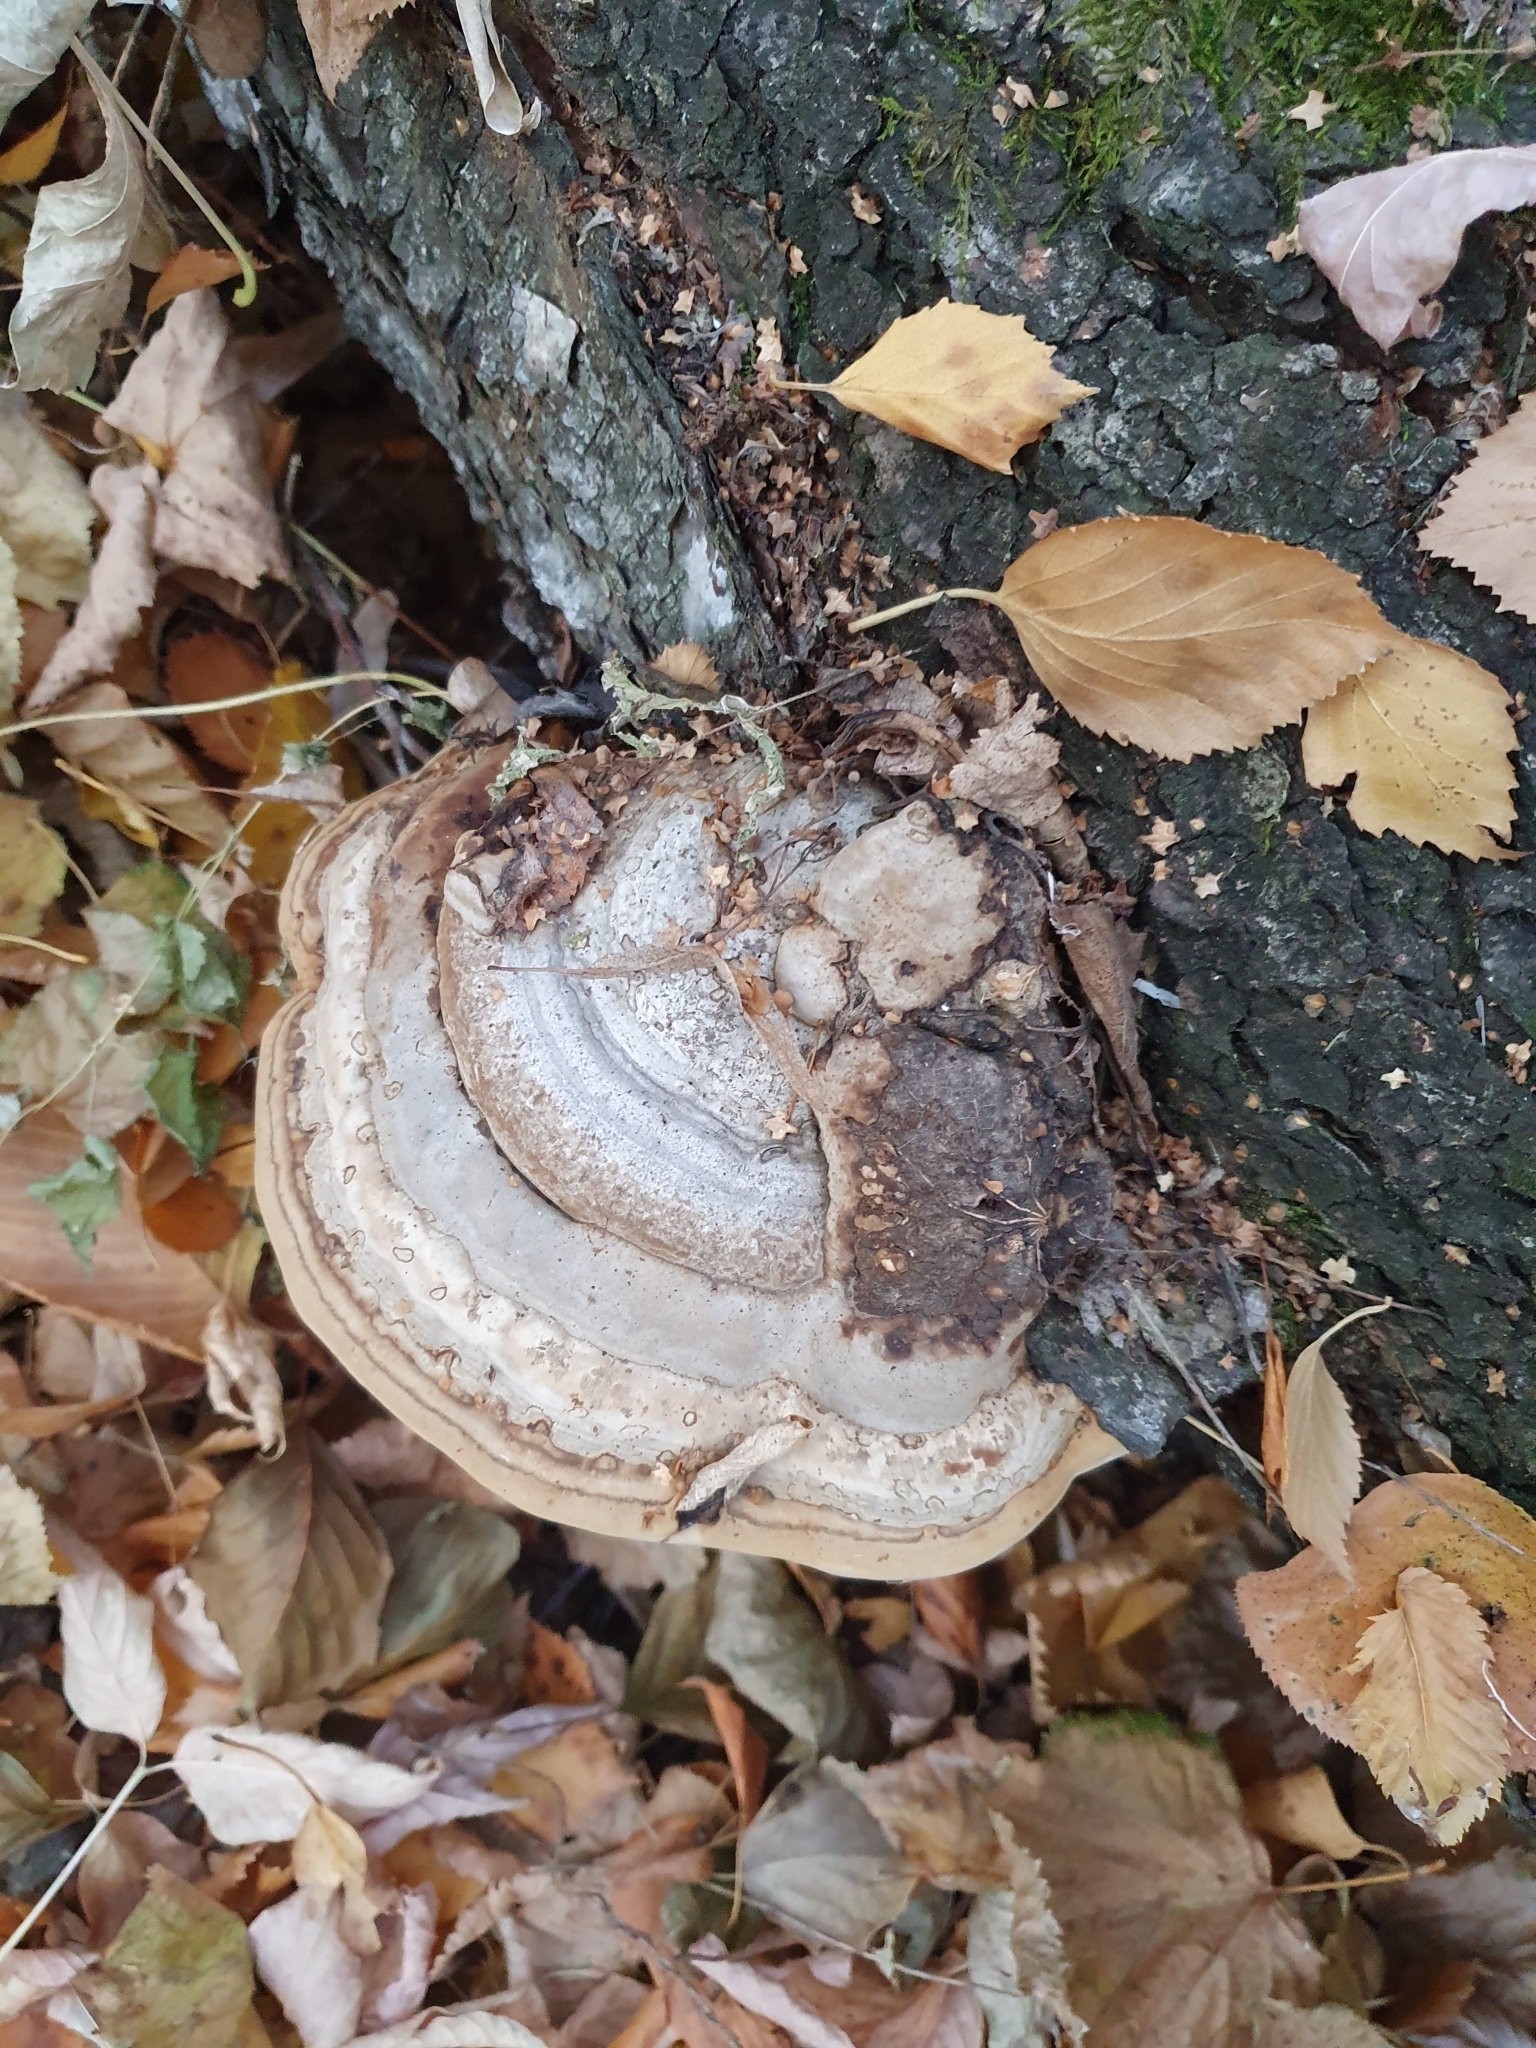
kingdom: Fungi
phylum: Basidiomycota
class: Agaricomycetes
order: Polyporales
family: Polyporaceae
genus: Fomes
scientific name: Fomes fomentarius
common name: Hoof fungus
